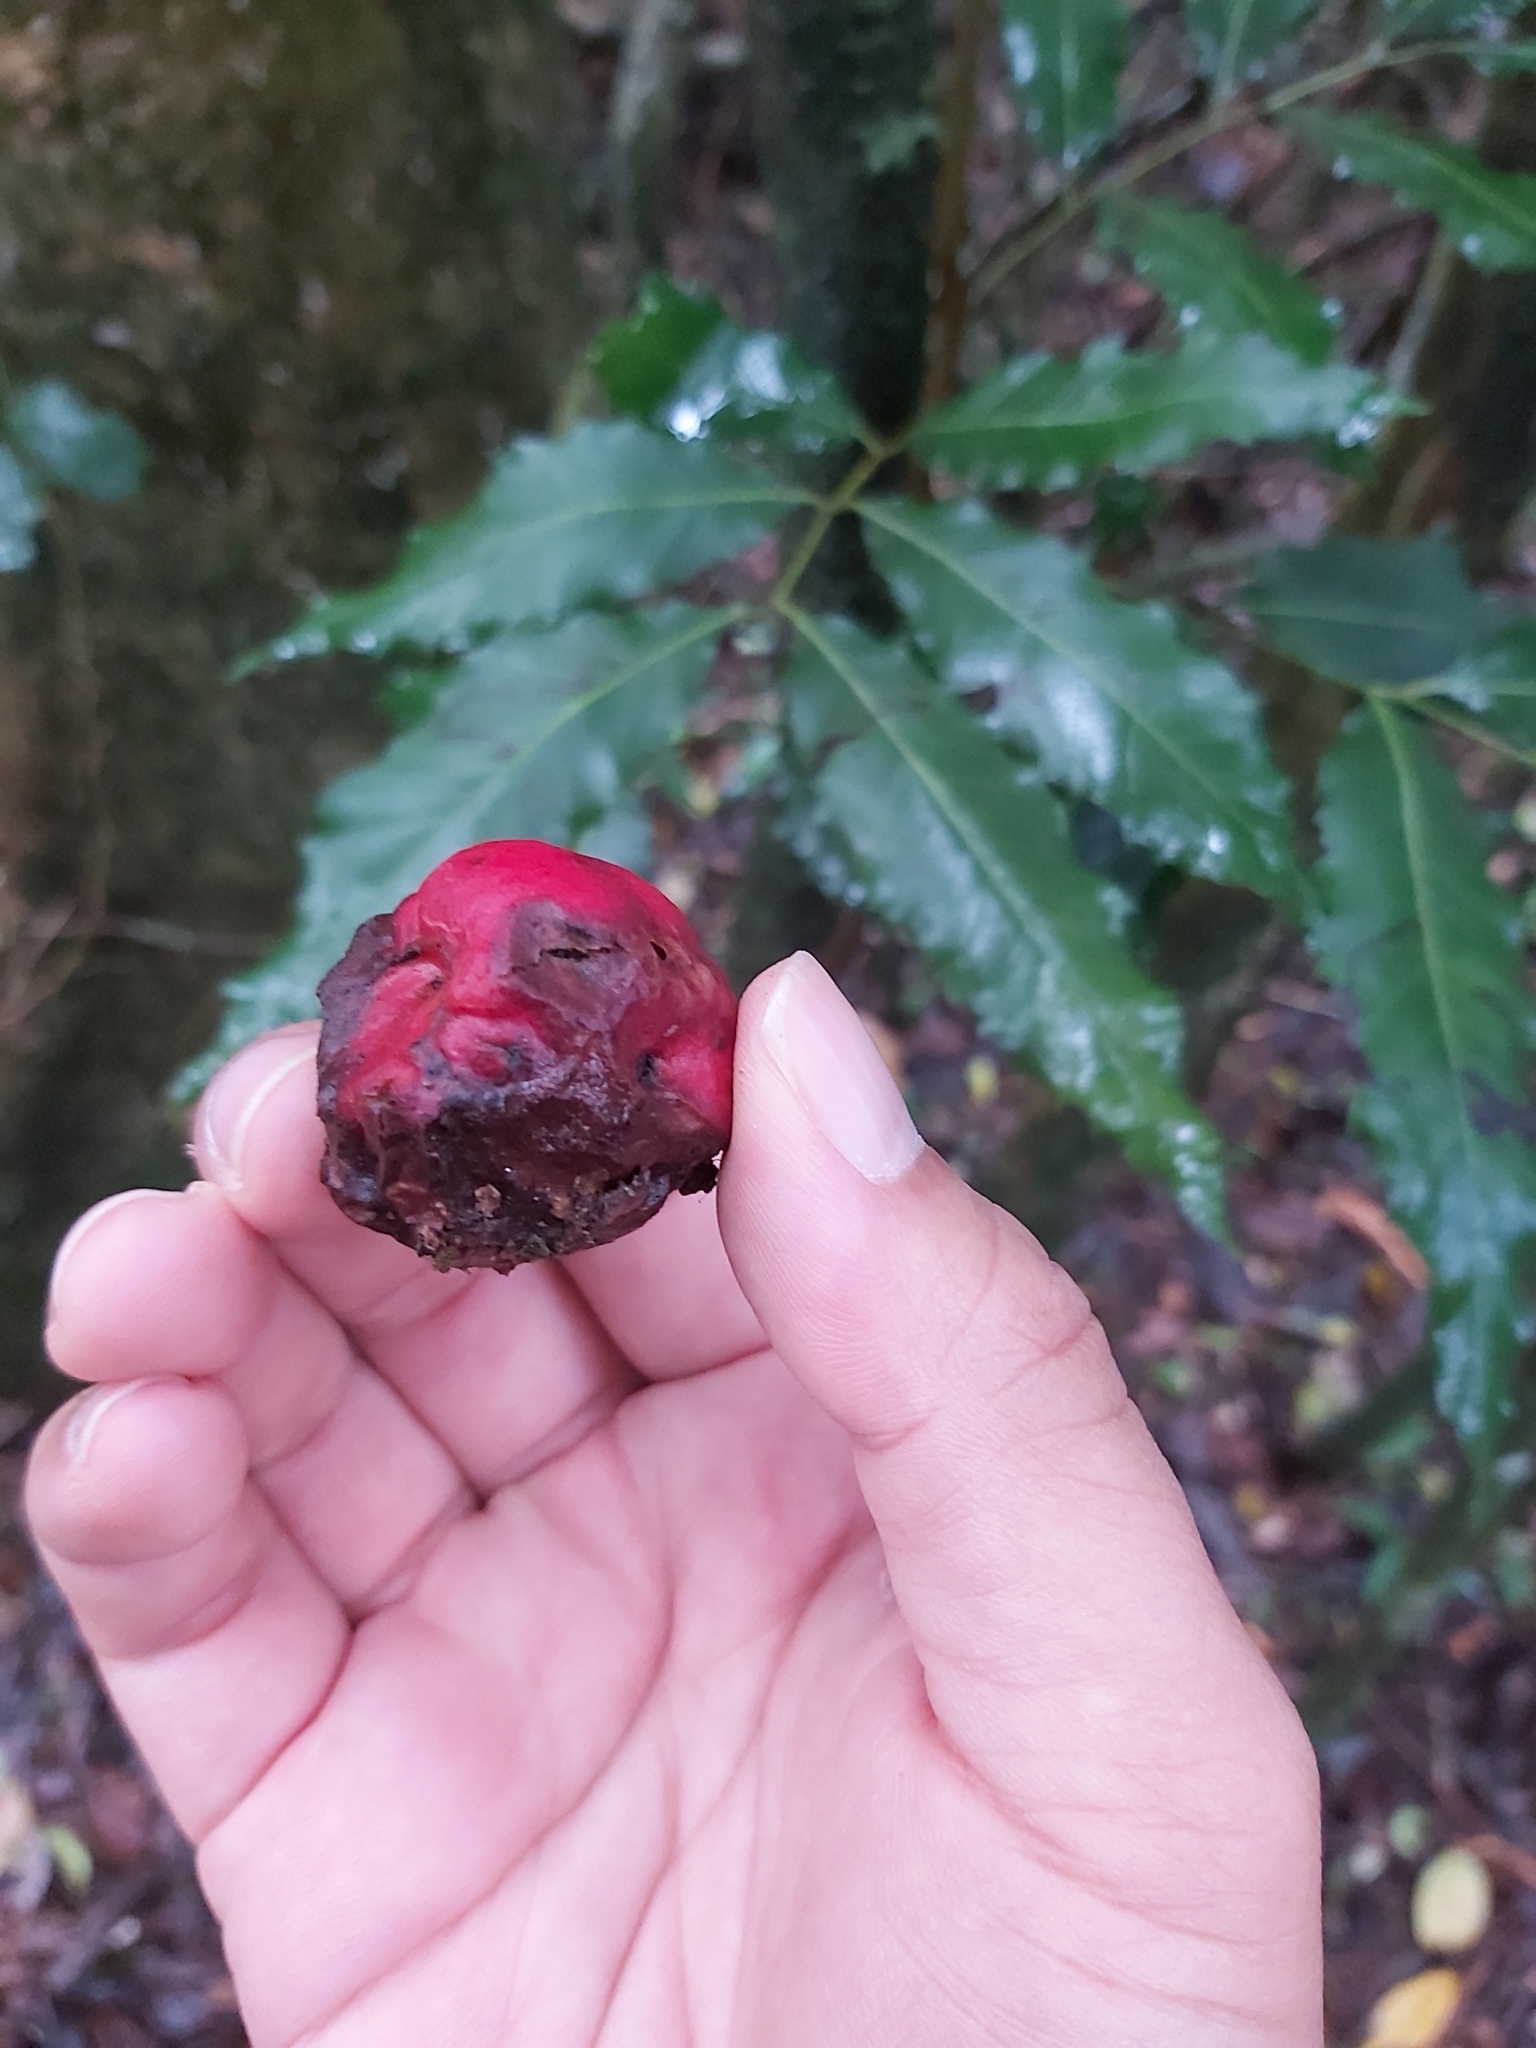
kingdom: Plantae
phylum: Tracheophyta
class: Magnoliopsida
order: Myrtales
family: Myrtaceae
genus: Syzygium
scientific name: Syzygium ingens
